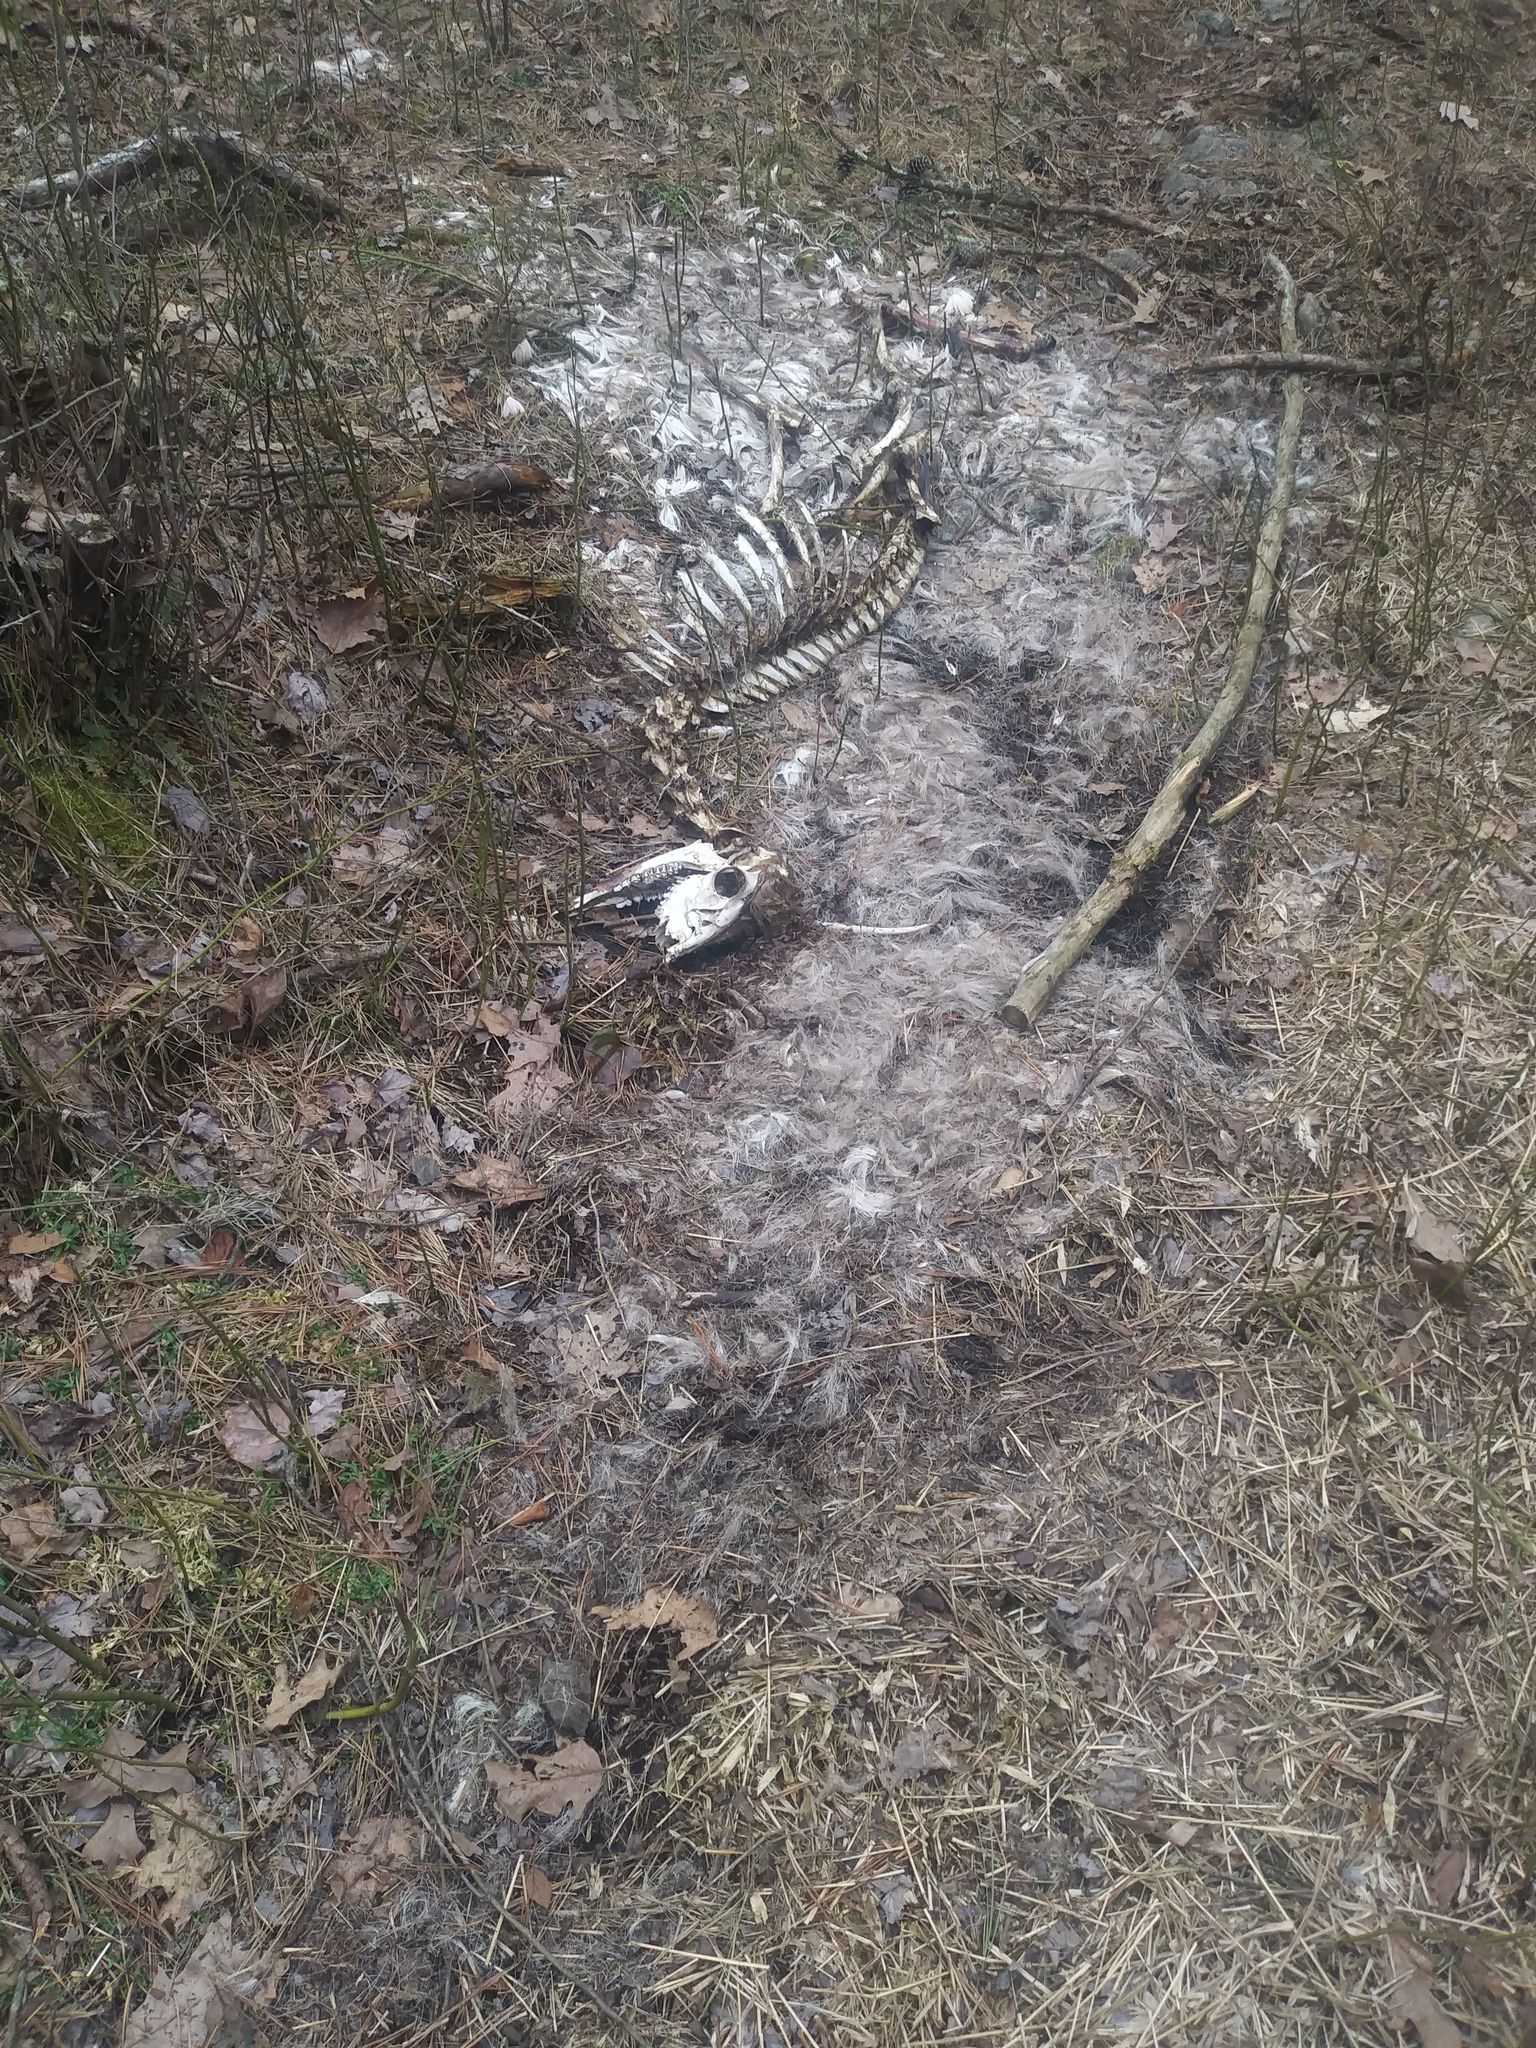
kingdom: Animalia
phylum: Chordata
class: Mammalia
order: Artiodactyla
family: Cervidae
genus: Odocoileus
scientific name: Odocoileus virginianus
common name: White-tailed deer
